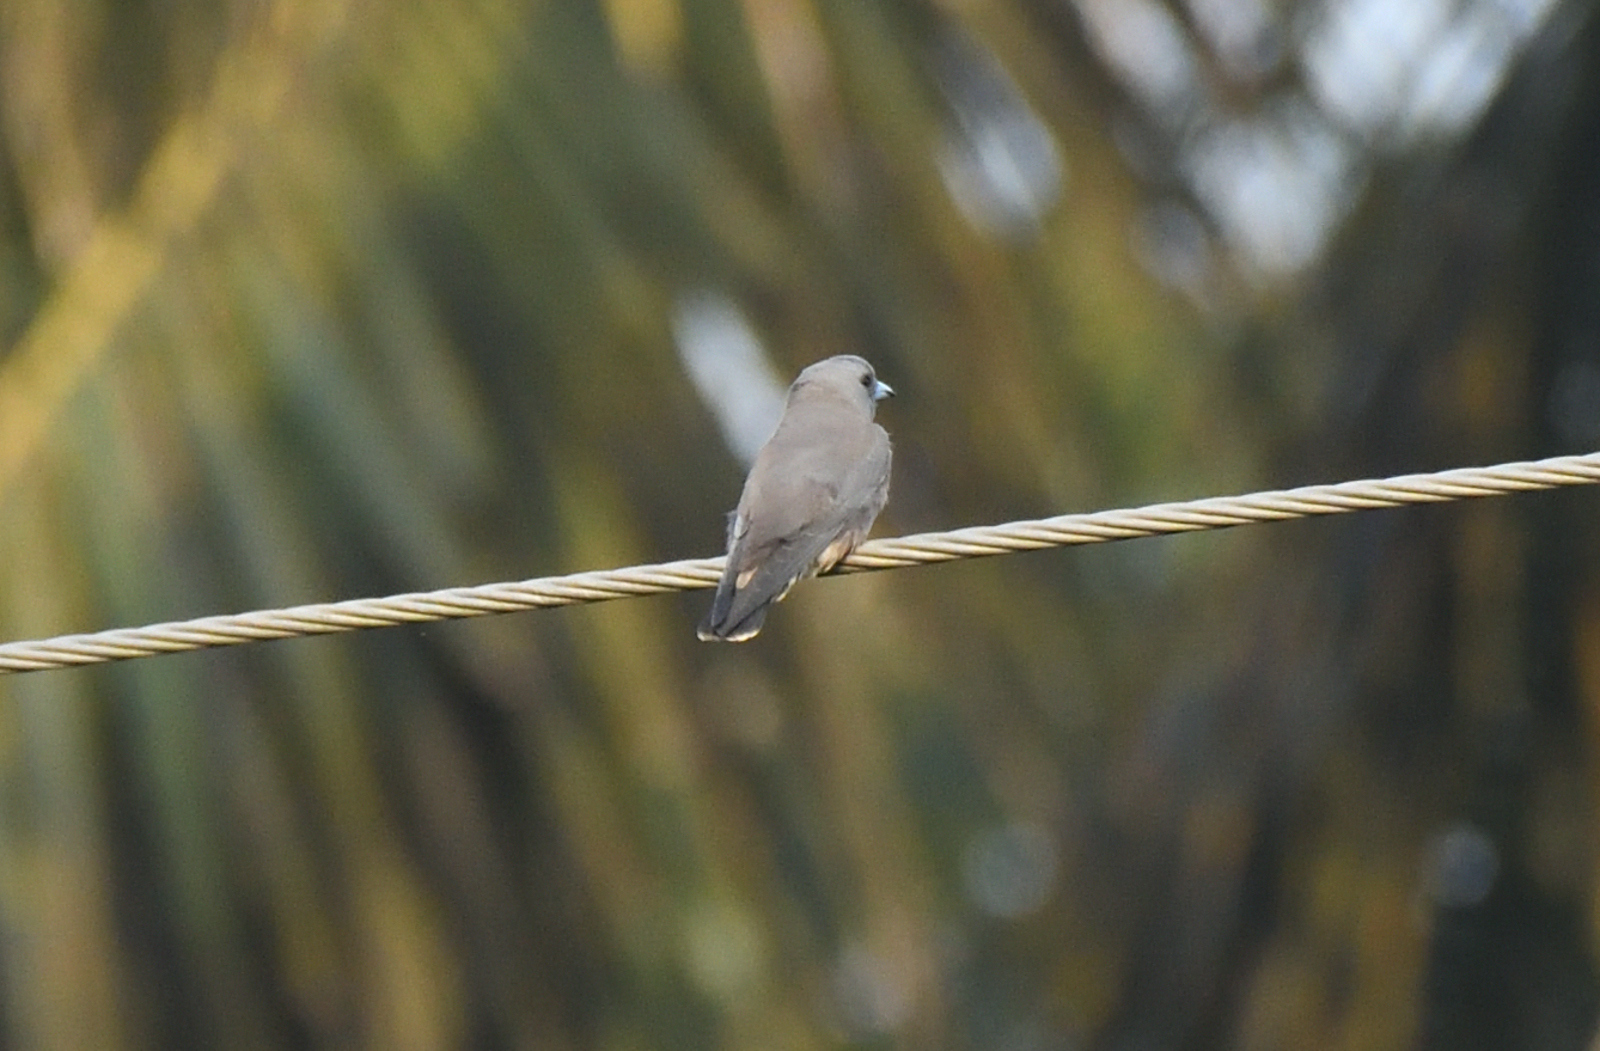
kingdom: Animalia
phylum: Chordata
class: Aves
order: Passeriformes
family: Artamidae
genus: Artamus
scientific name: Artamus fuscus
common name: Ashy woodswallow
